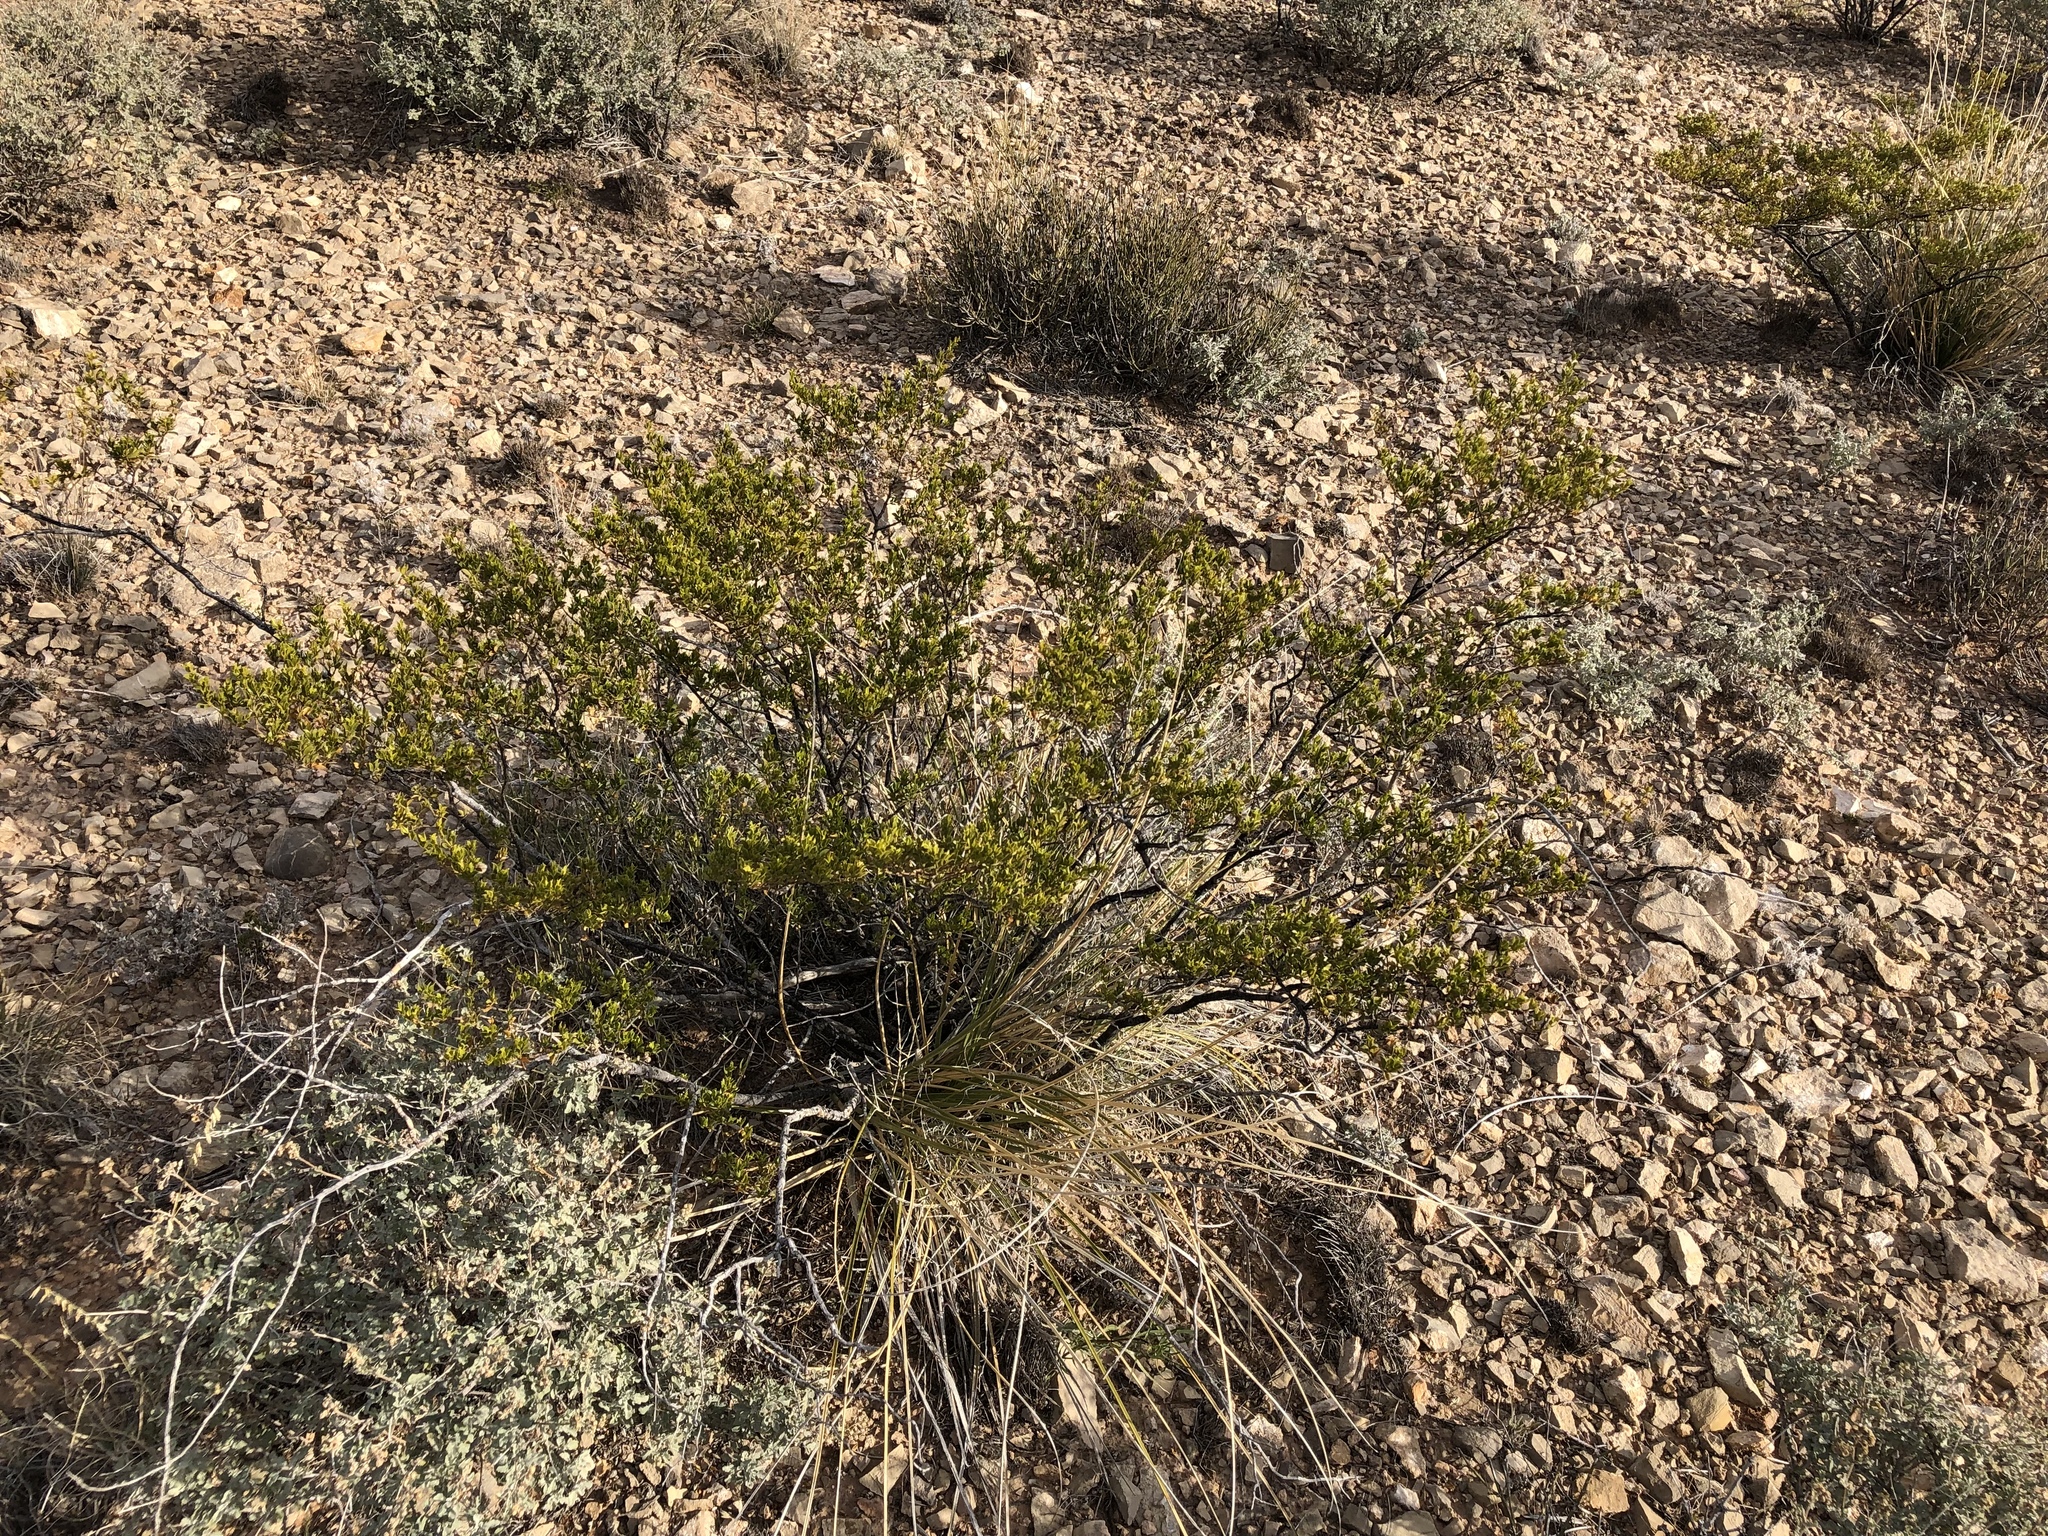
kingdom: Plantae
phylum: Tracheophyta
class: Magnoliopsida
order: Zygophyllales
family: Zygophyllaceae
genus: Larrea
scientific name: Larrea tridentata
